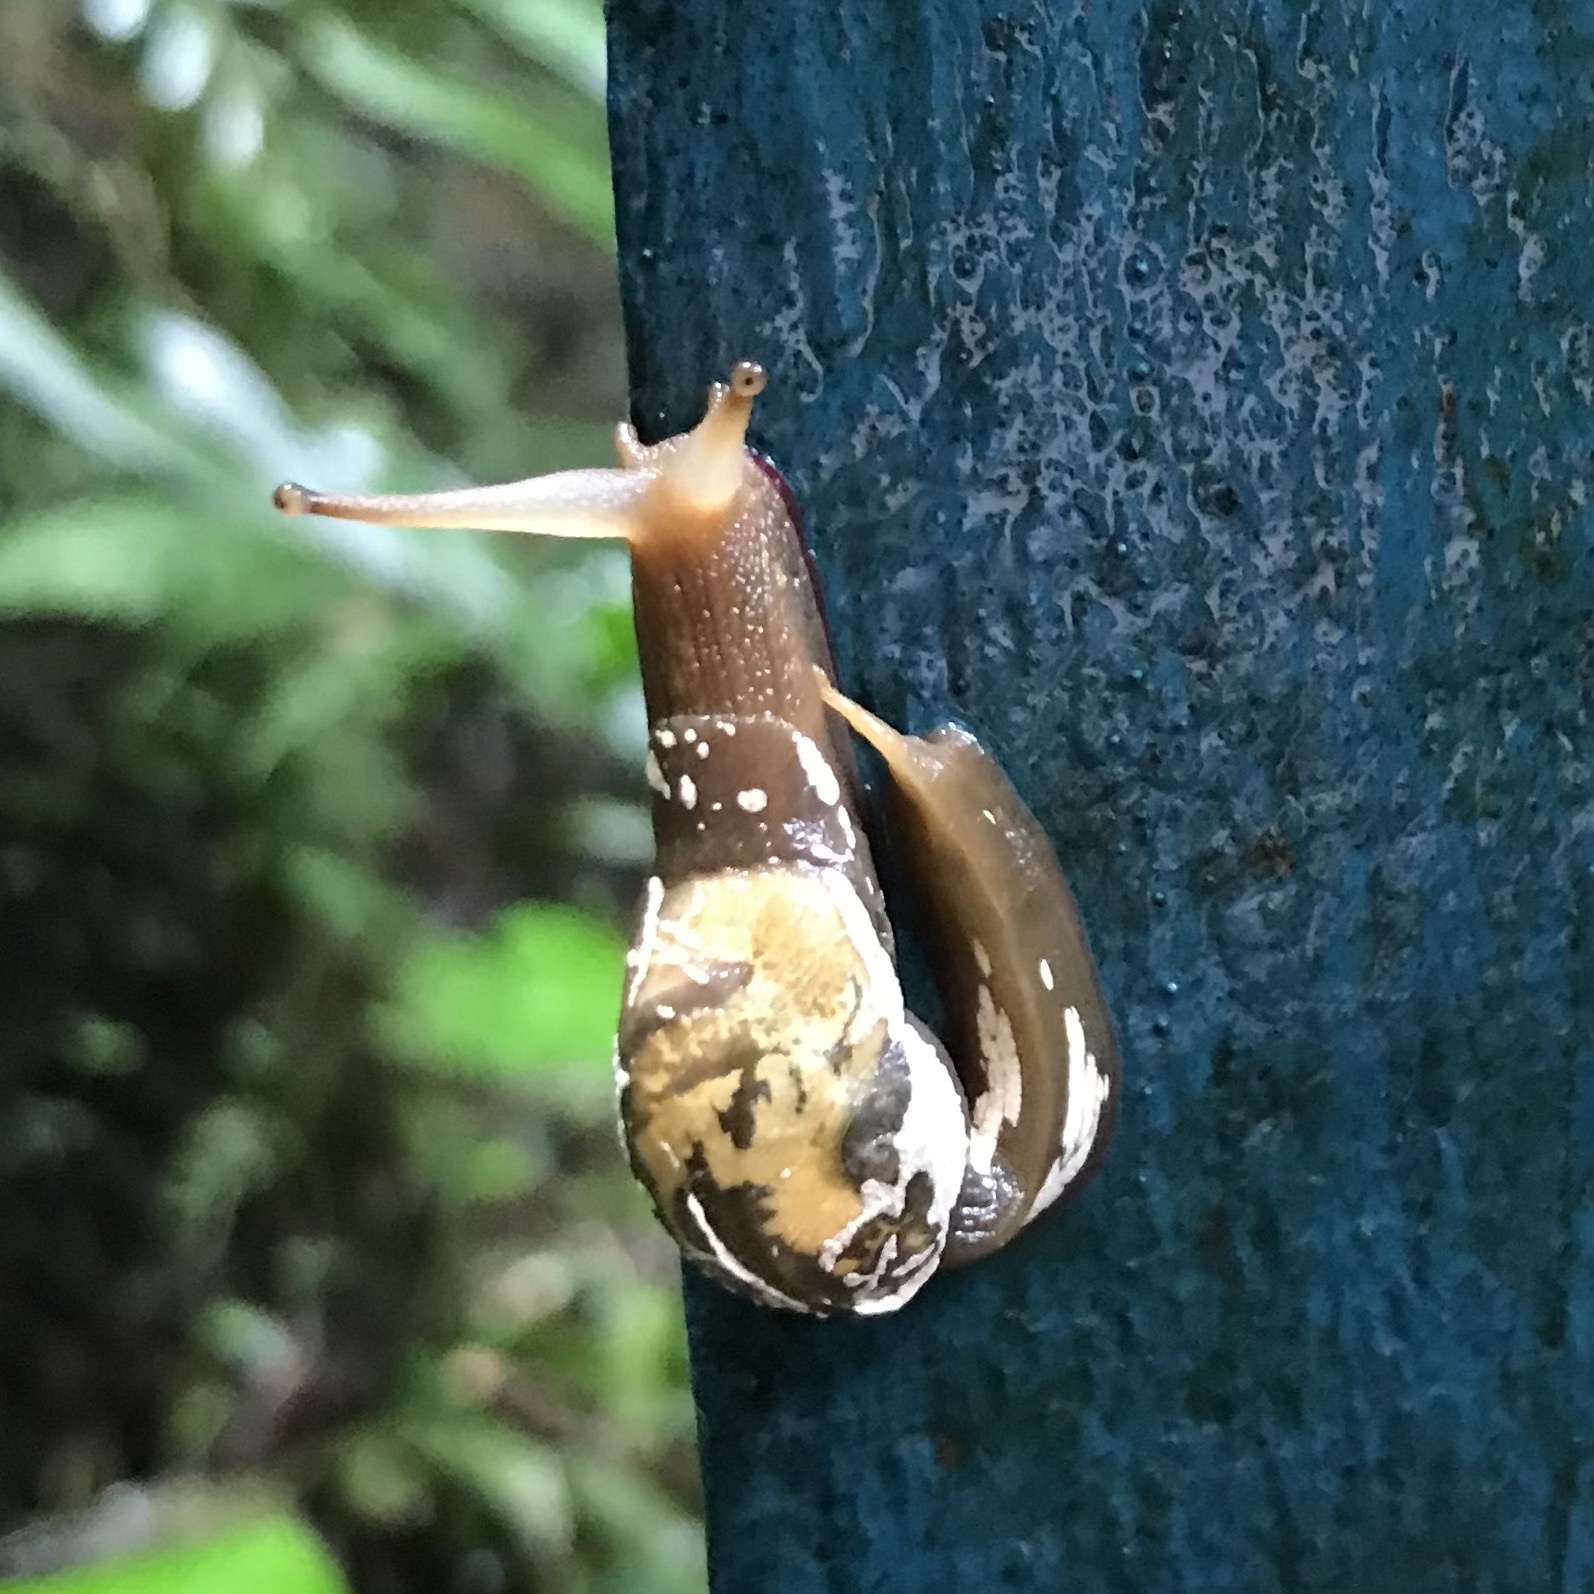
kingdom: Animalia
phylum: Mollusca
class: Gastropoda
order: Stylommatophora
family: Helicarionidae
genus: Cucullarion
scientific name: Cucullarion albimaculosus
